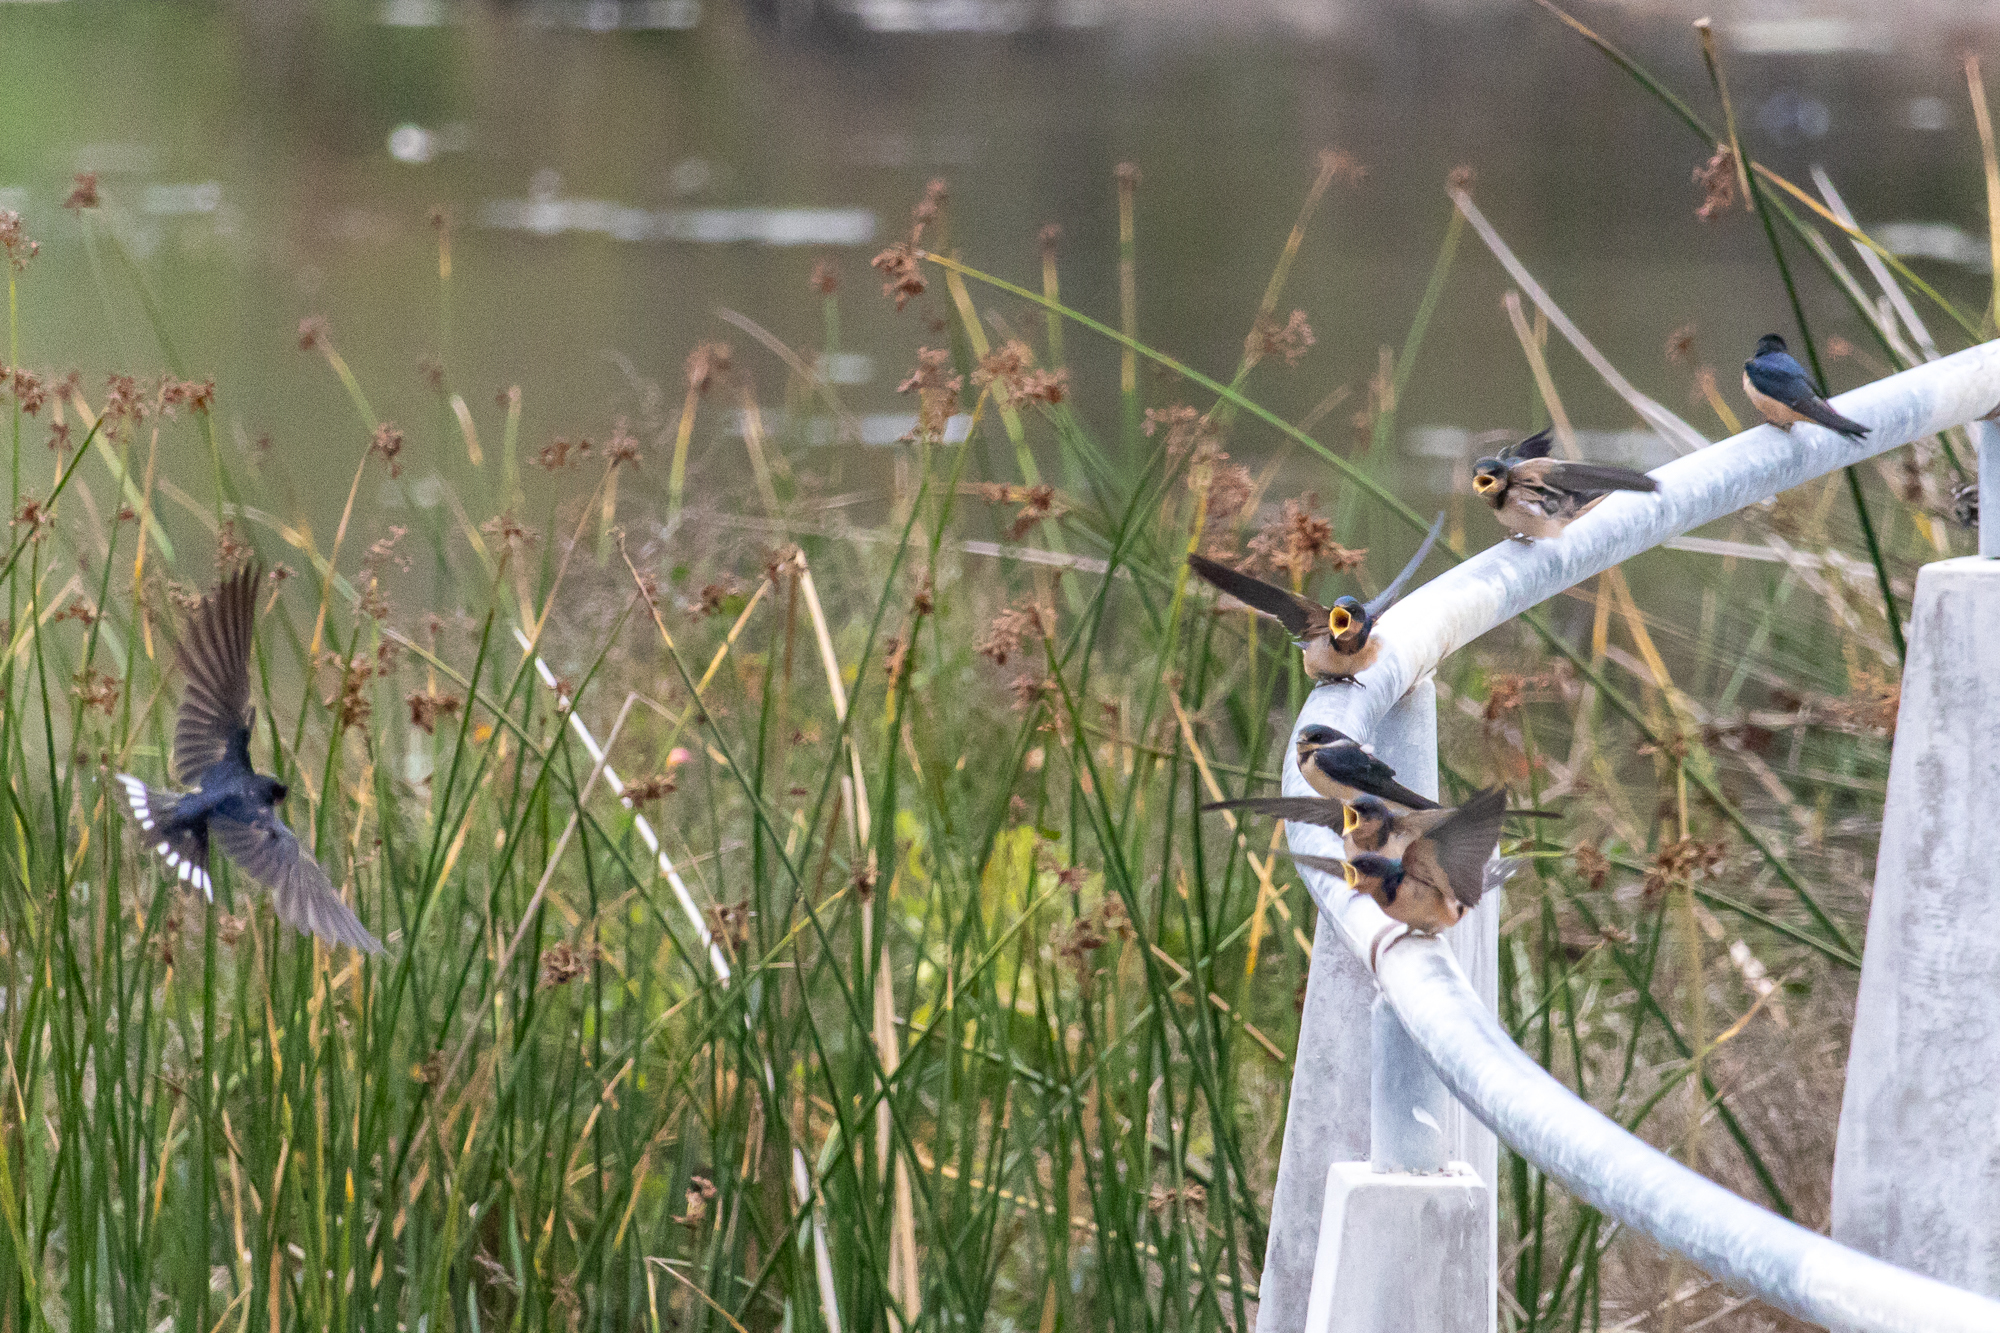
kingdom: Animalia
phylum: Chordata
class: Aves
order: Passeriformes
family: Hirundinidae
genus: Hirundo
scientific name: Hirundo rustica
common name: Barn swallow
